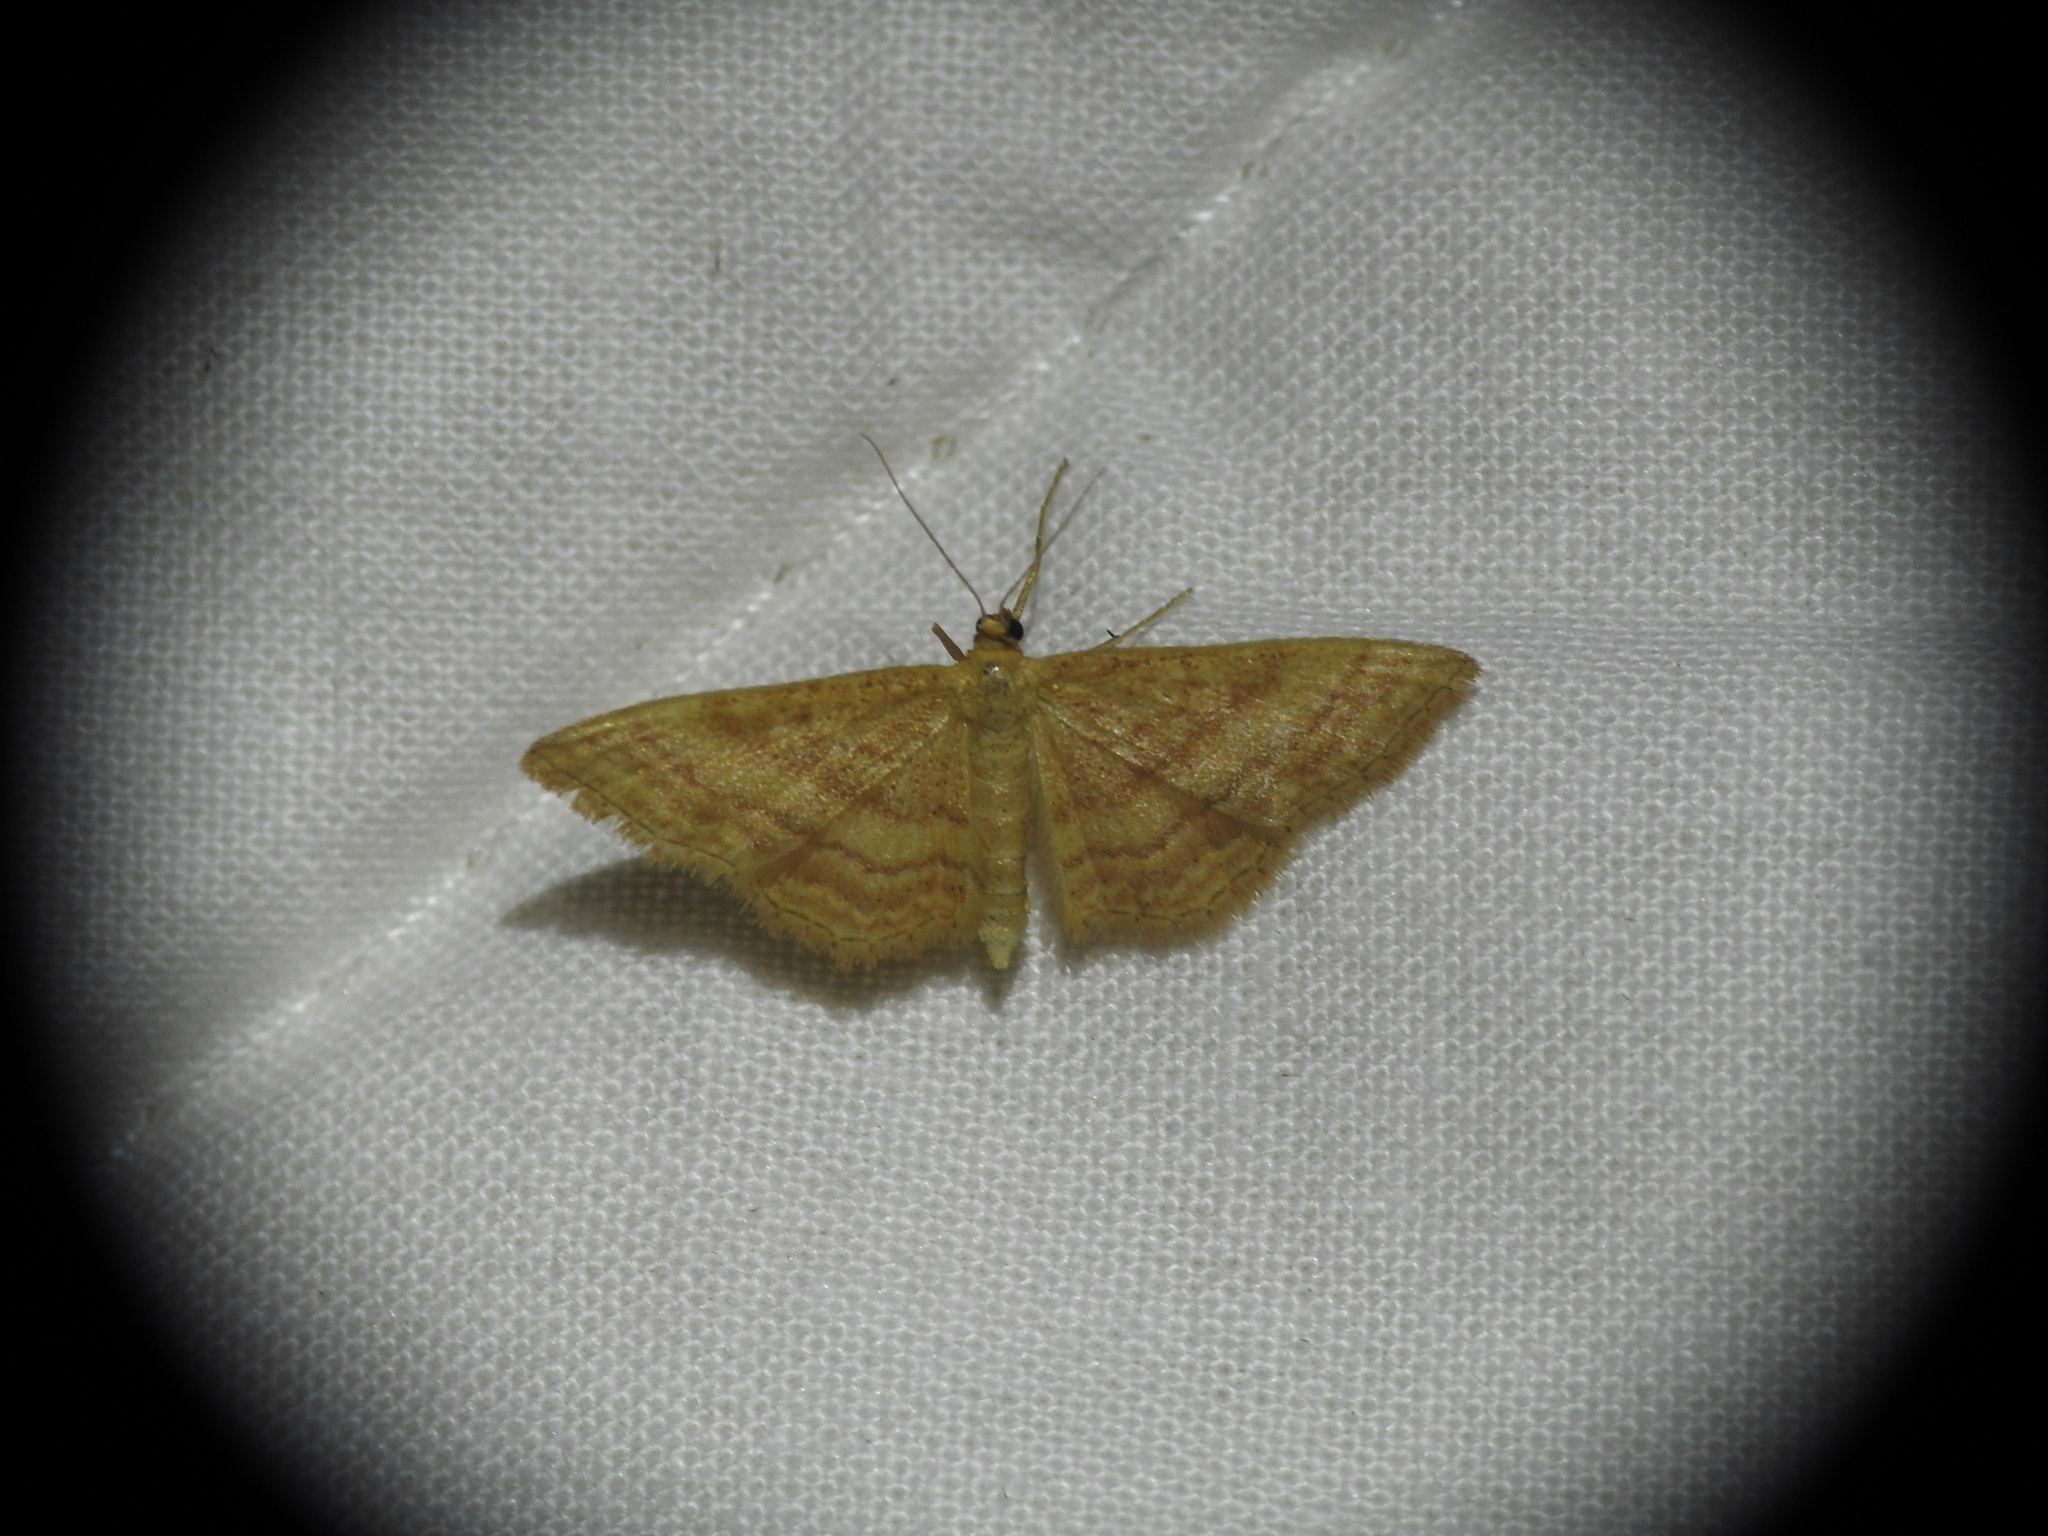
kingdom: Animalia
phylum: Arthropoda
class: Insecta
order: Lepidoptera
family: Geometridae
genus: Idaea
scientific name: Idaea ochrata
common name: Bright wave
